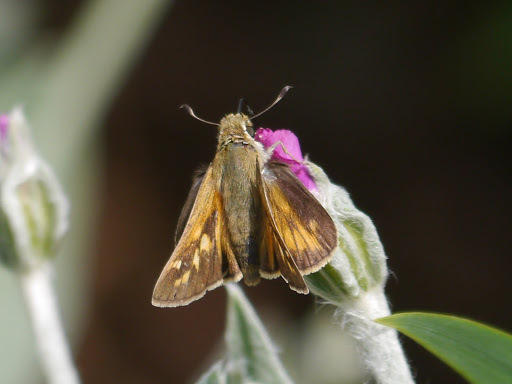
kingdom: Animalia
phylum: Arthropoda
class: Insecta
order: Lepidoptera
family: Hesperiidae
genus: Atalopedes
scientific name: Atalopedes
